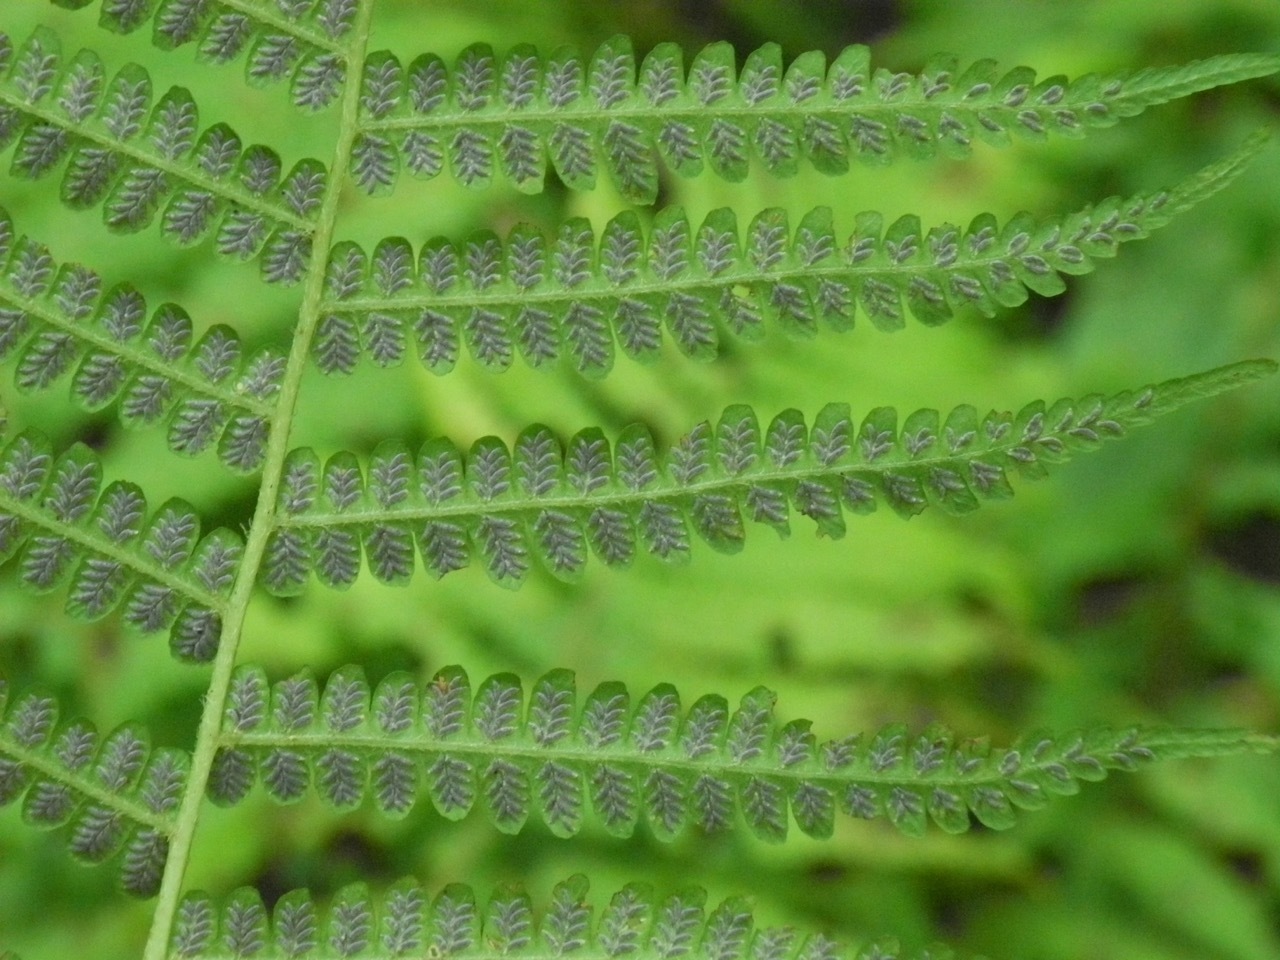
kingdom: Plantae
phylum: Tracheophyta
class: Polypodiopsida
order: Polypodiales
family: Athyriaceae
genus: Deparia
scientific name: Deparia acrostichoides
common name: Silver false spleenwort
